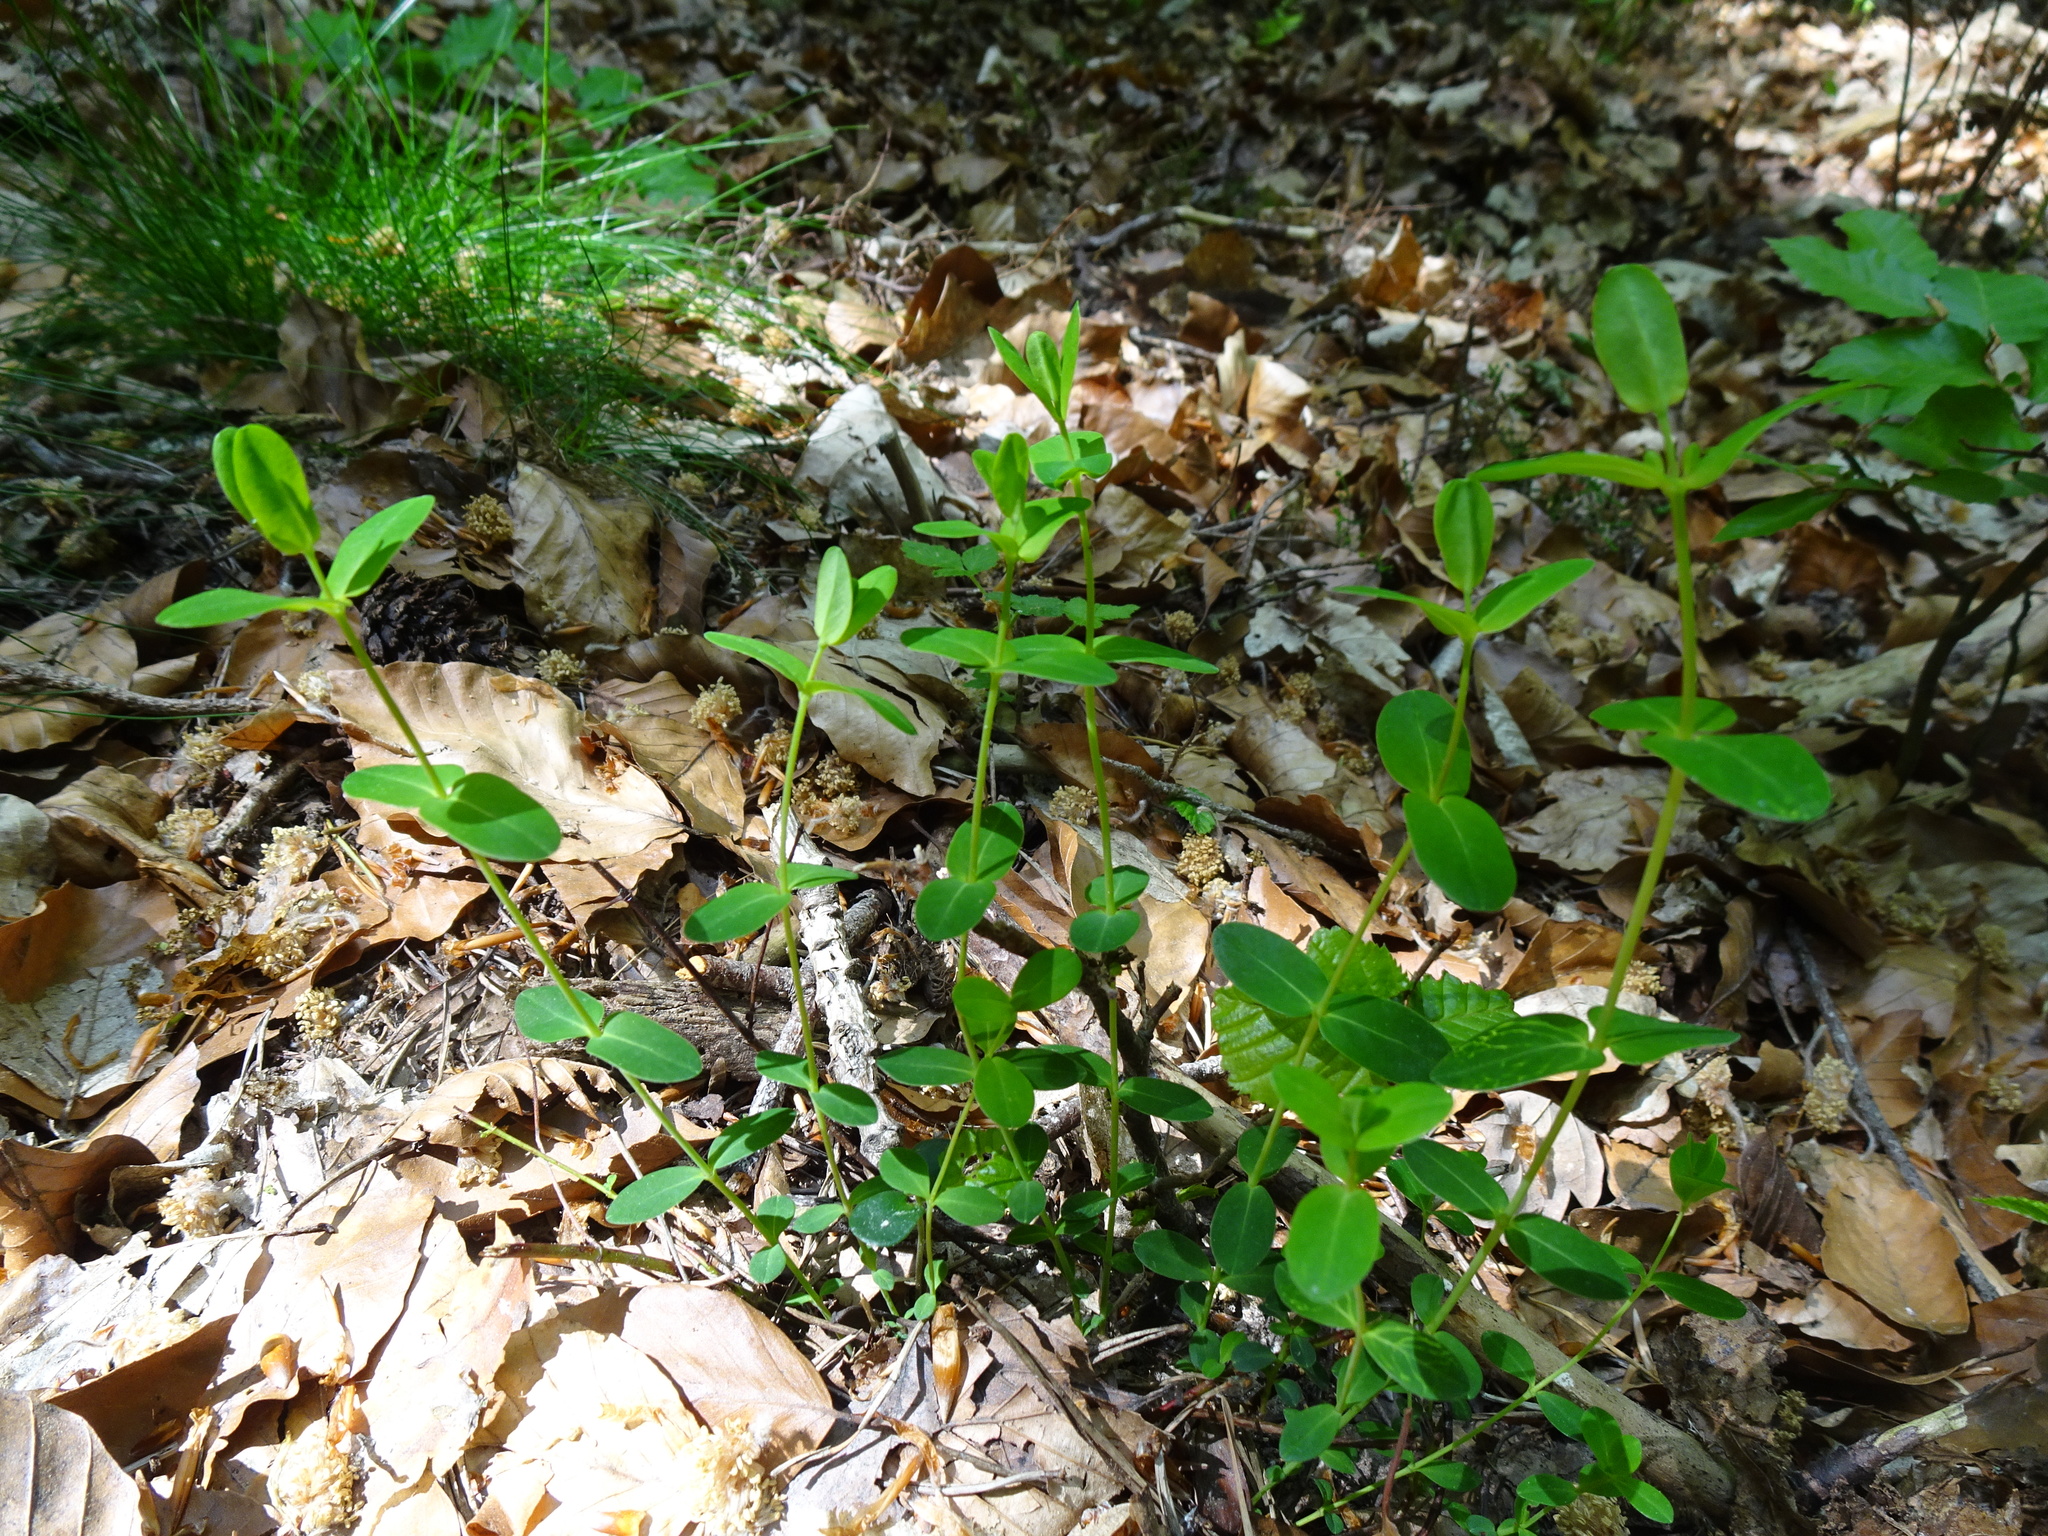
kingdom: Plantae
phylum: Tracheophyta
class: Magnoliopsida
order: Malpighiales
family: Hypericaceae
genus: Hypericum
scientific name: Hypericum pulchrum
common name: Slender st. john's-wort
